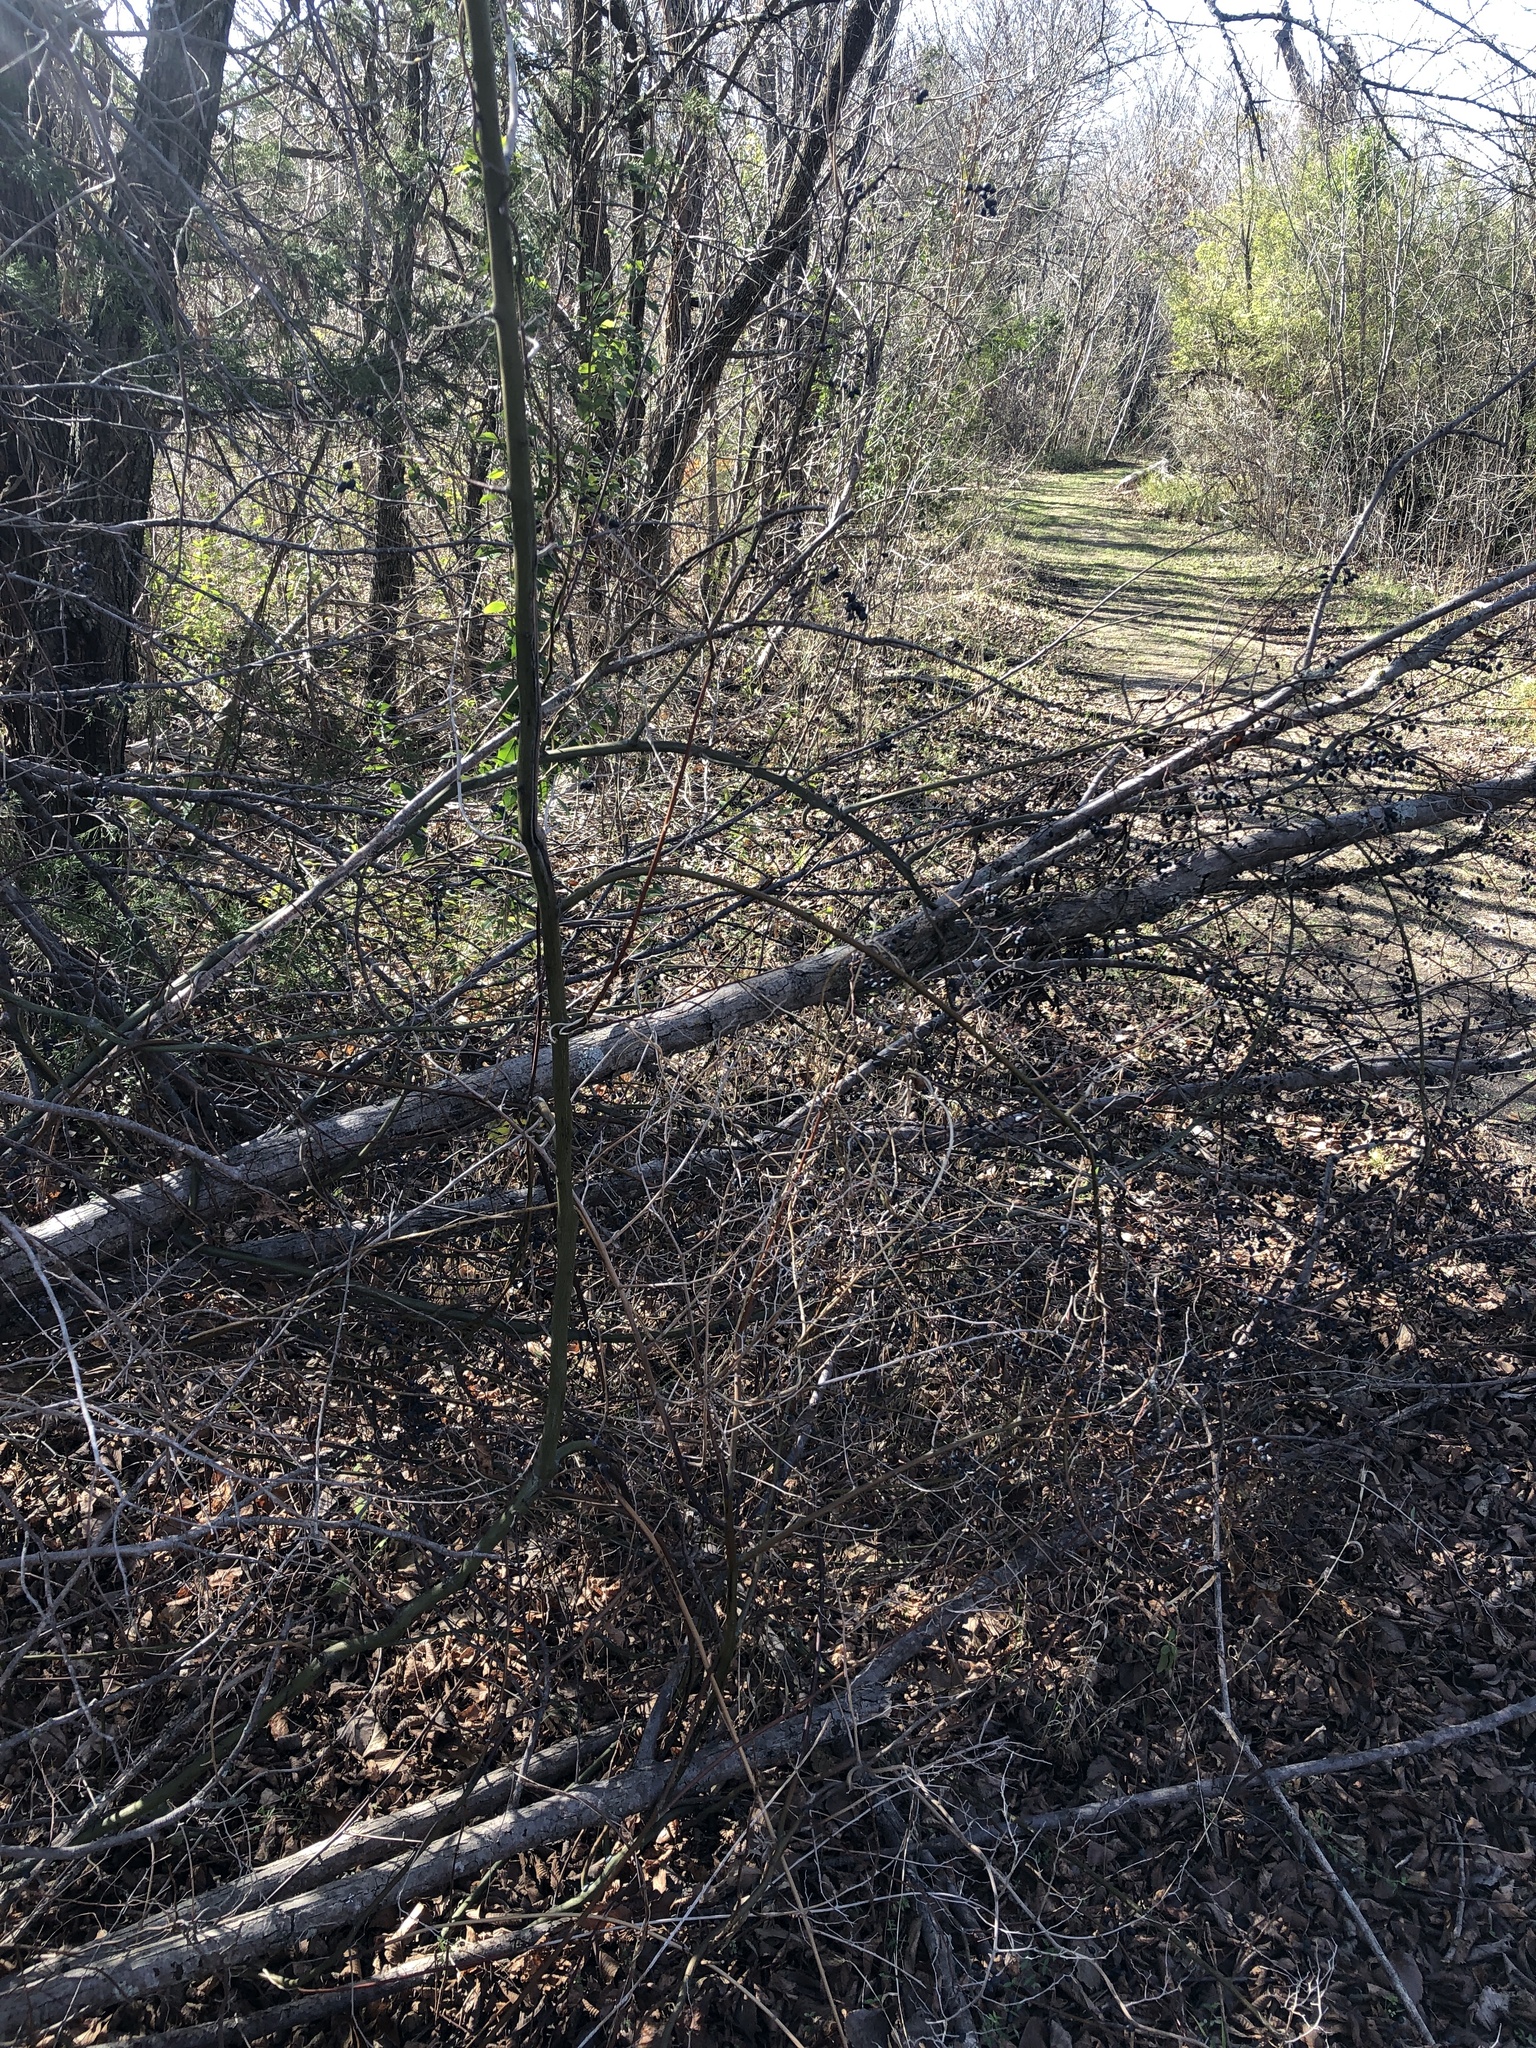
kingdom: Plantae
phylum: Tracheophyta
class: Magnoliopsida
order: Rosales
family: Rhamnaceae
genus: Berchemia
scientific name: Berchemia scandens
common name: Supplejack
